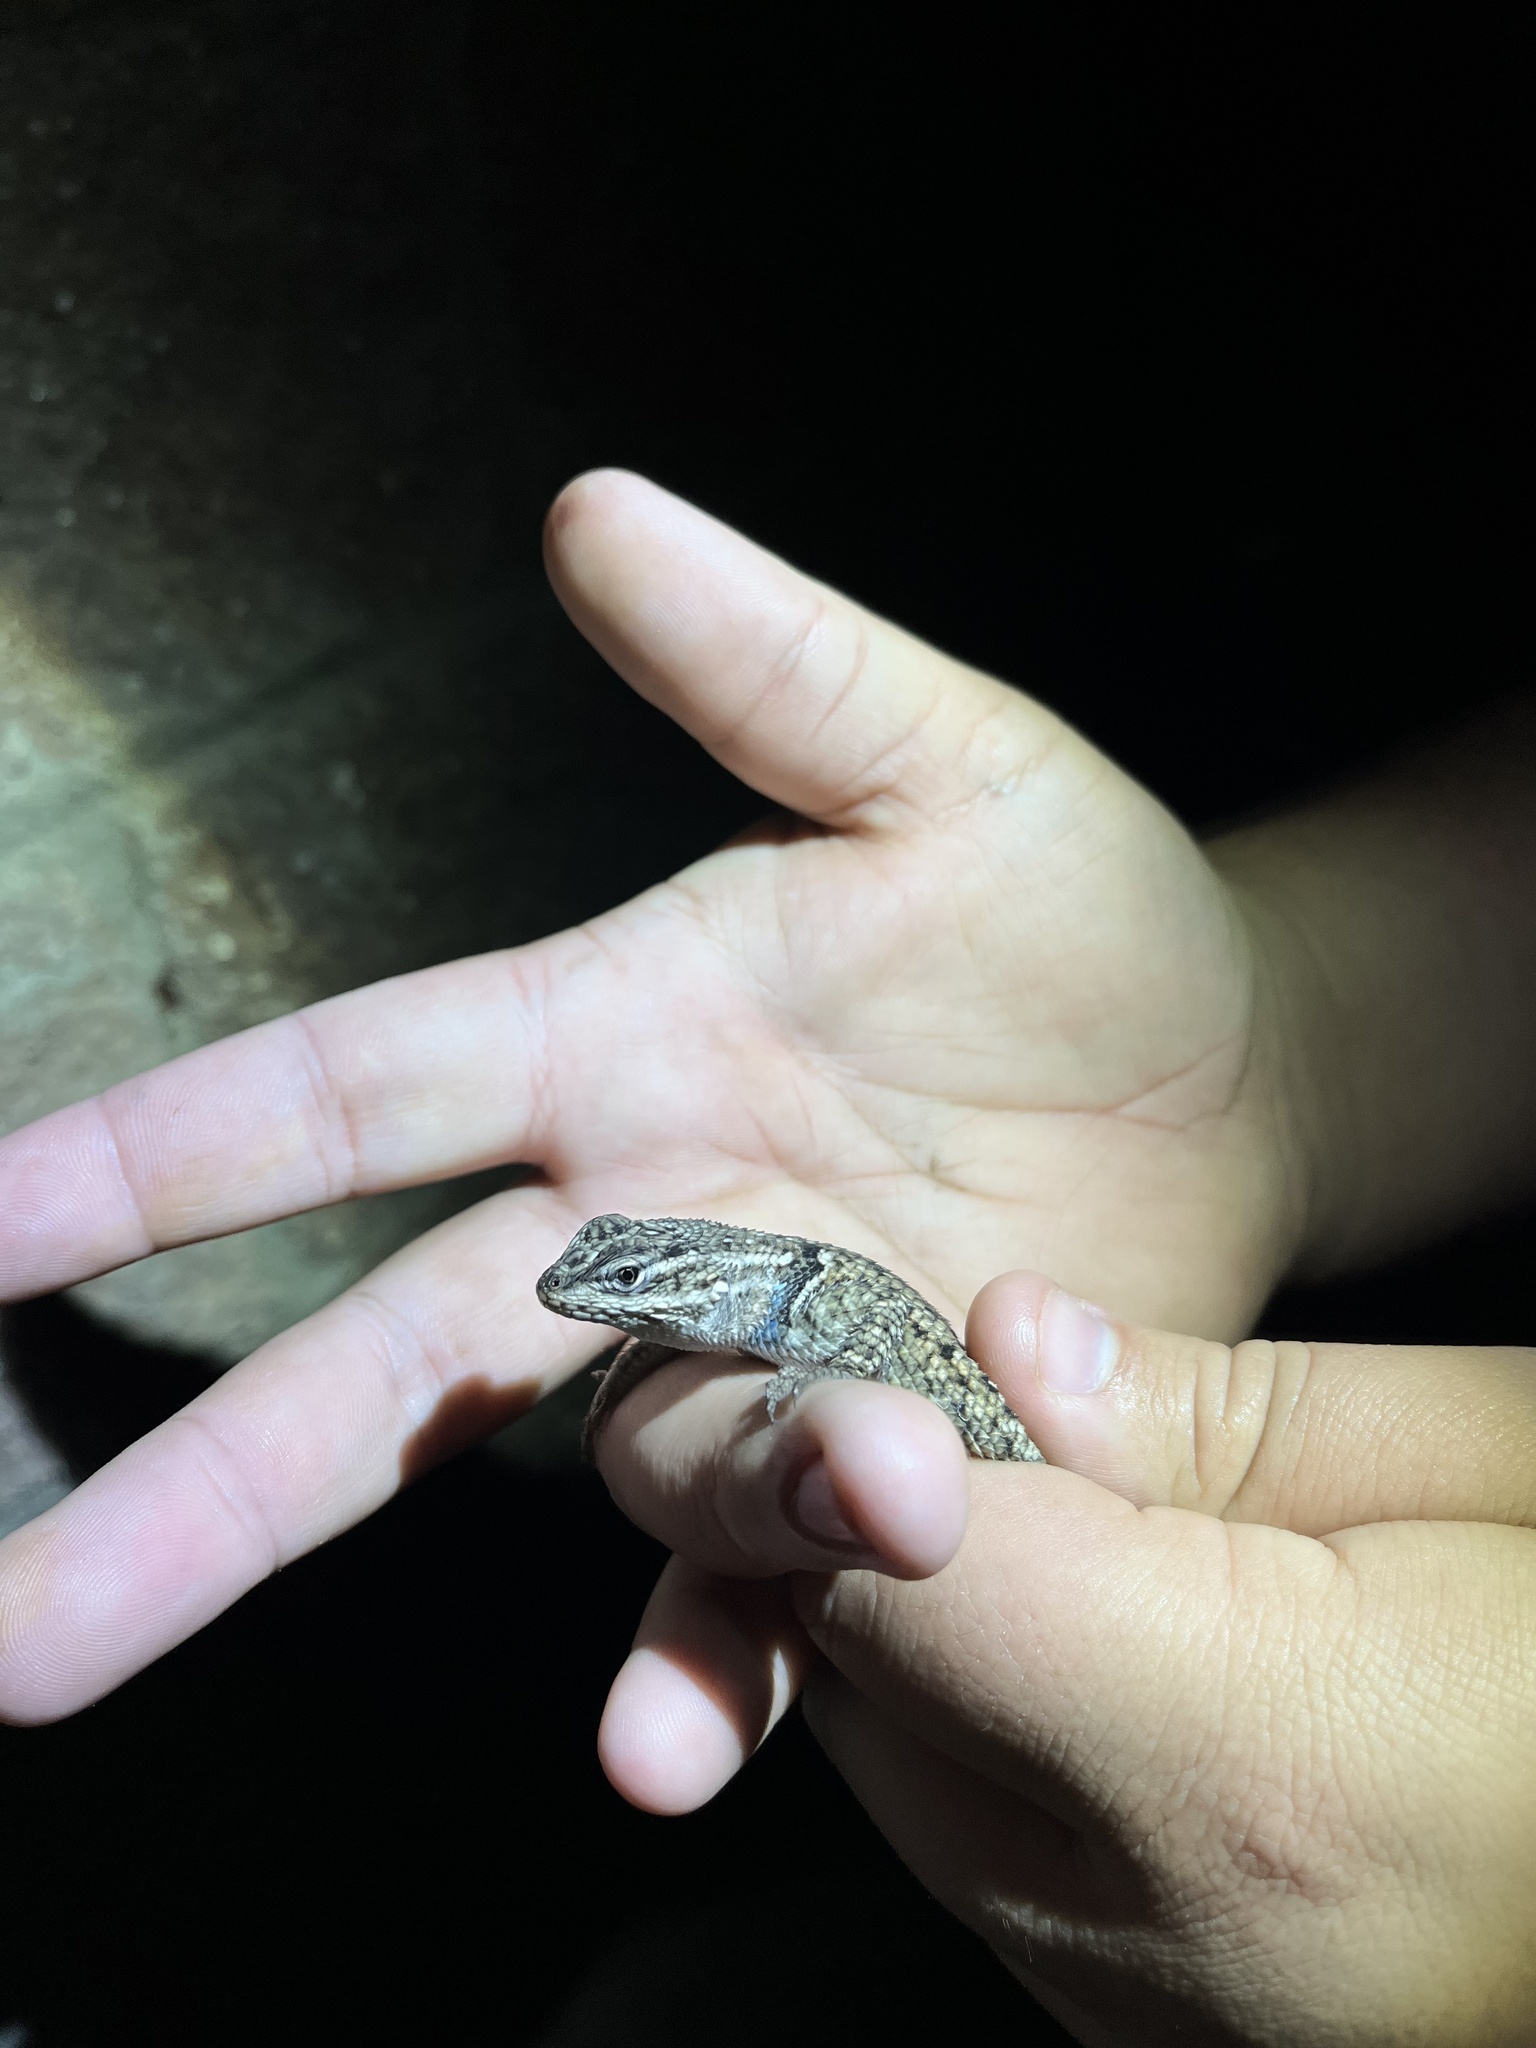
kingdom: Animalia
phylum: Chordata
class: Squamata
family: Phrynosomatidae
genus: Sceloporus
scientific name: Sceloporus jarrovii
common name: Yarrow's spiny lizard
